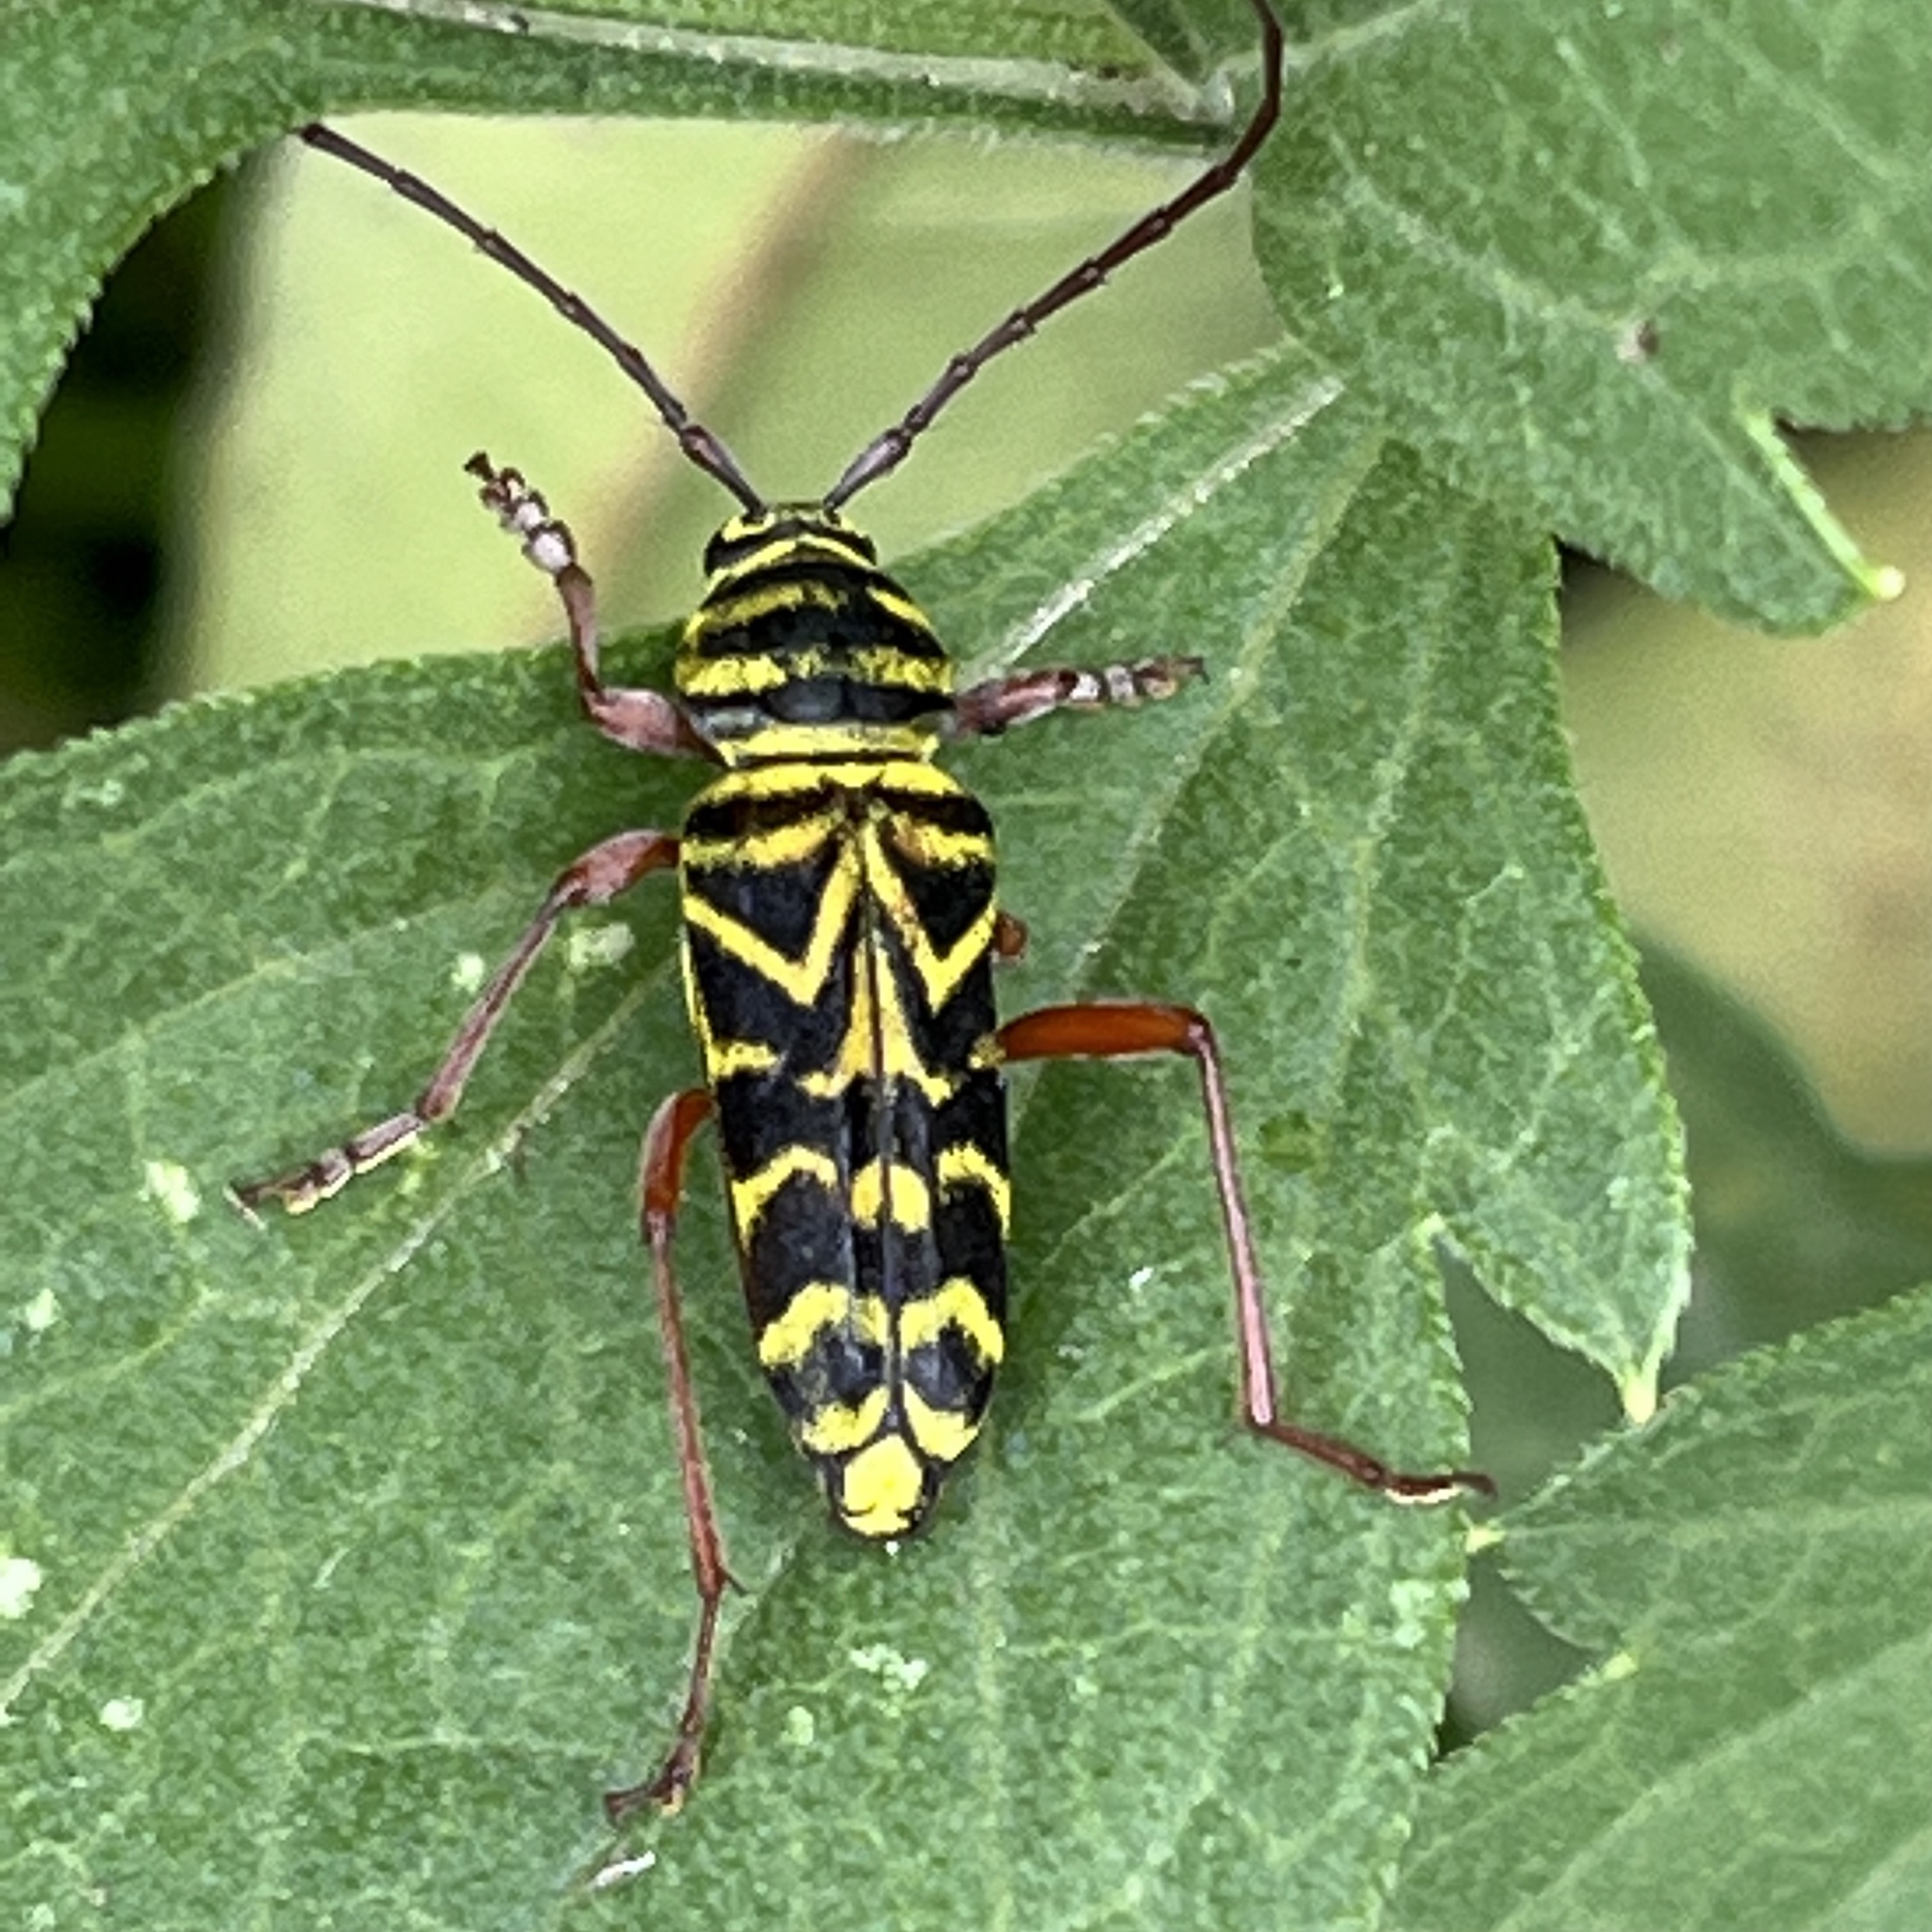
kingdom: Animalia
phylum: Arthropoda
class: Insecta
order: Coleoptera
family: Cerambycidae
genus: Megacyllene
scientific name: Megacyllene robiniae
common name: Locust borer
